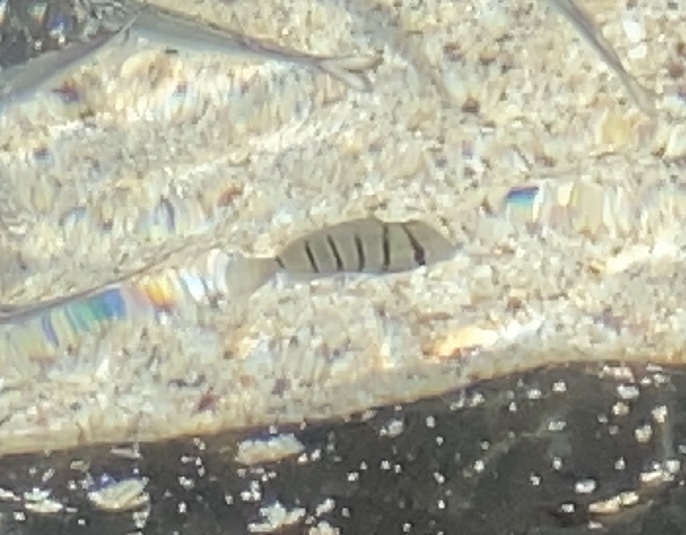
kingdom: Animalia
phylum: Chordata
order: Perciformes
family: Acanthuridae
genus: Acanthurus
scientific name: Acanthurus triostegus
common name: Convict surgeonfish
